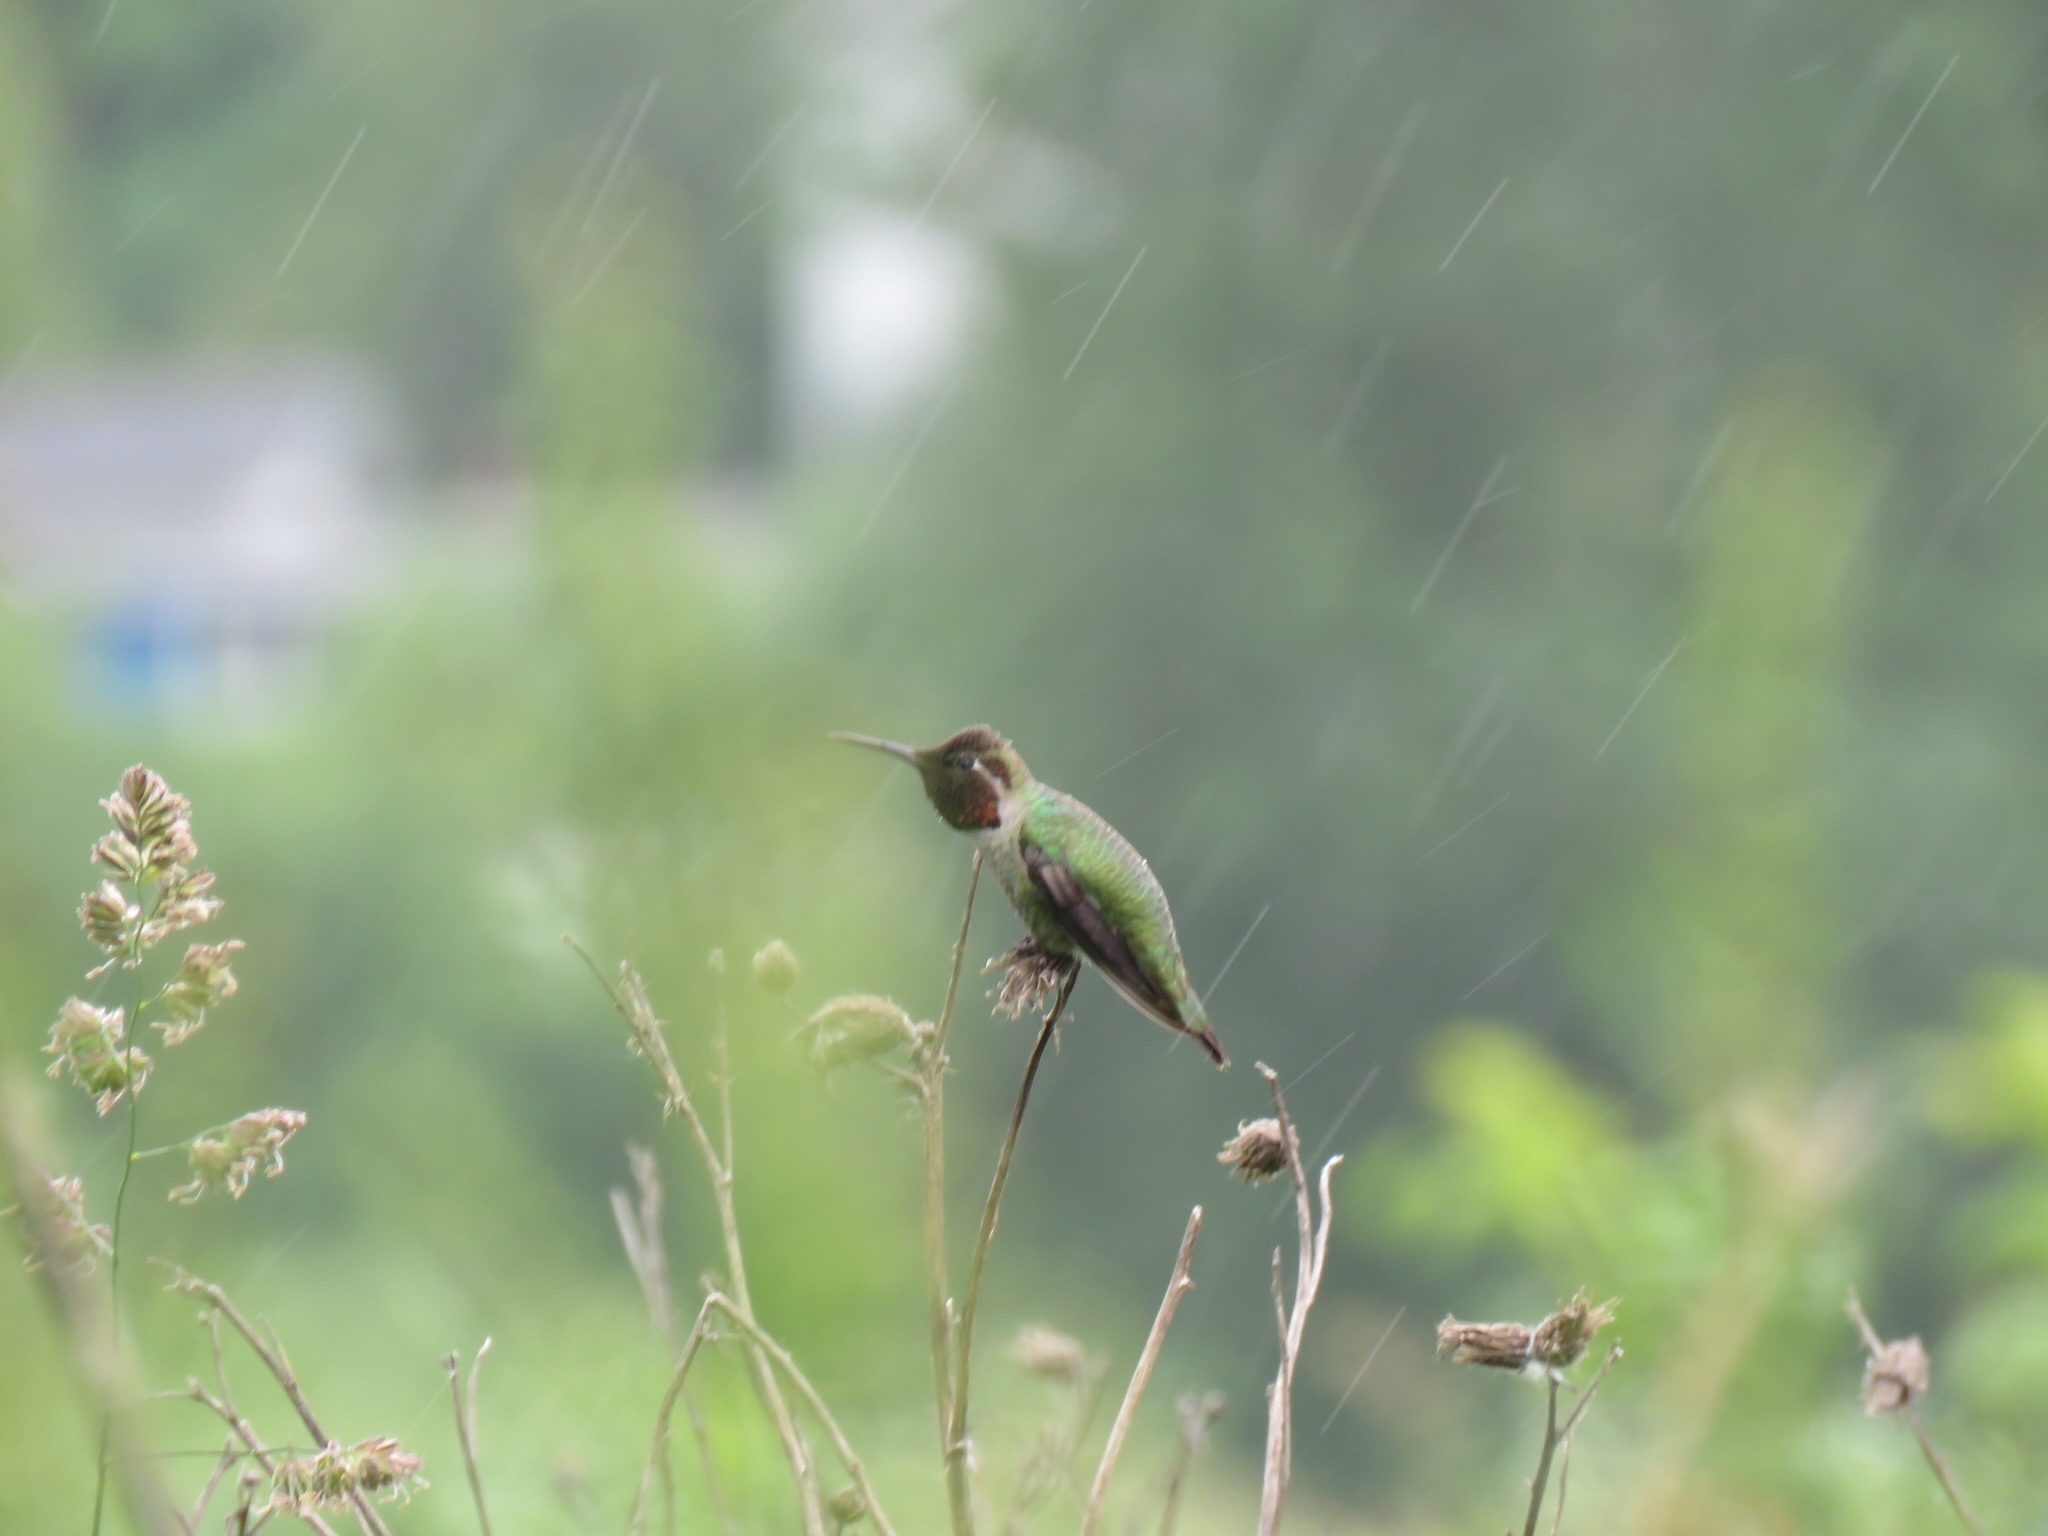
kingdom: Animalia
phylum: Chordata
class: Aves
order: Apodiformes
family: Trochilidae
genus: Calypte
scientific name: Calypte anna
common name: Anna's hummingbird
